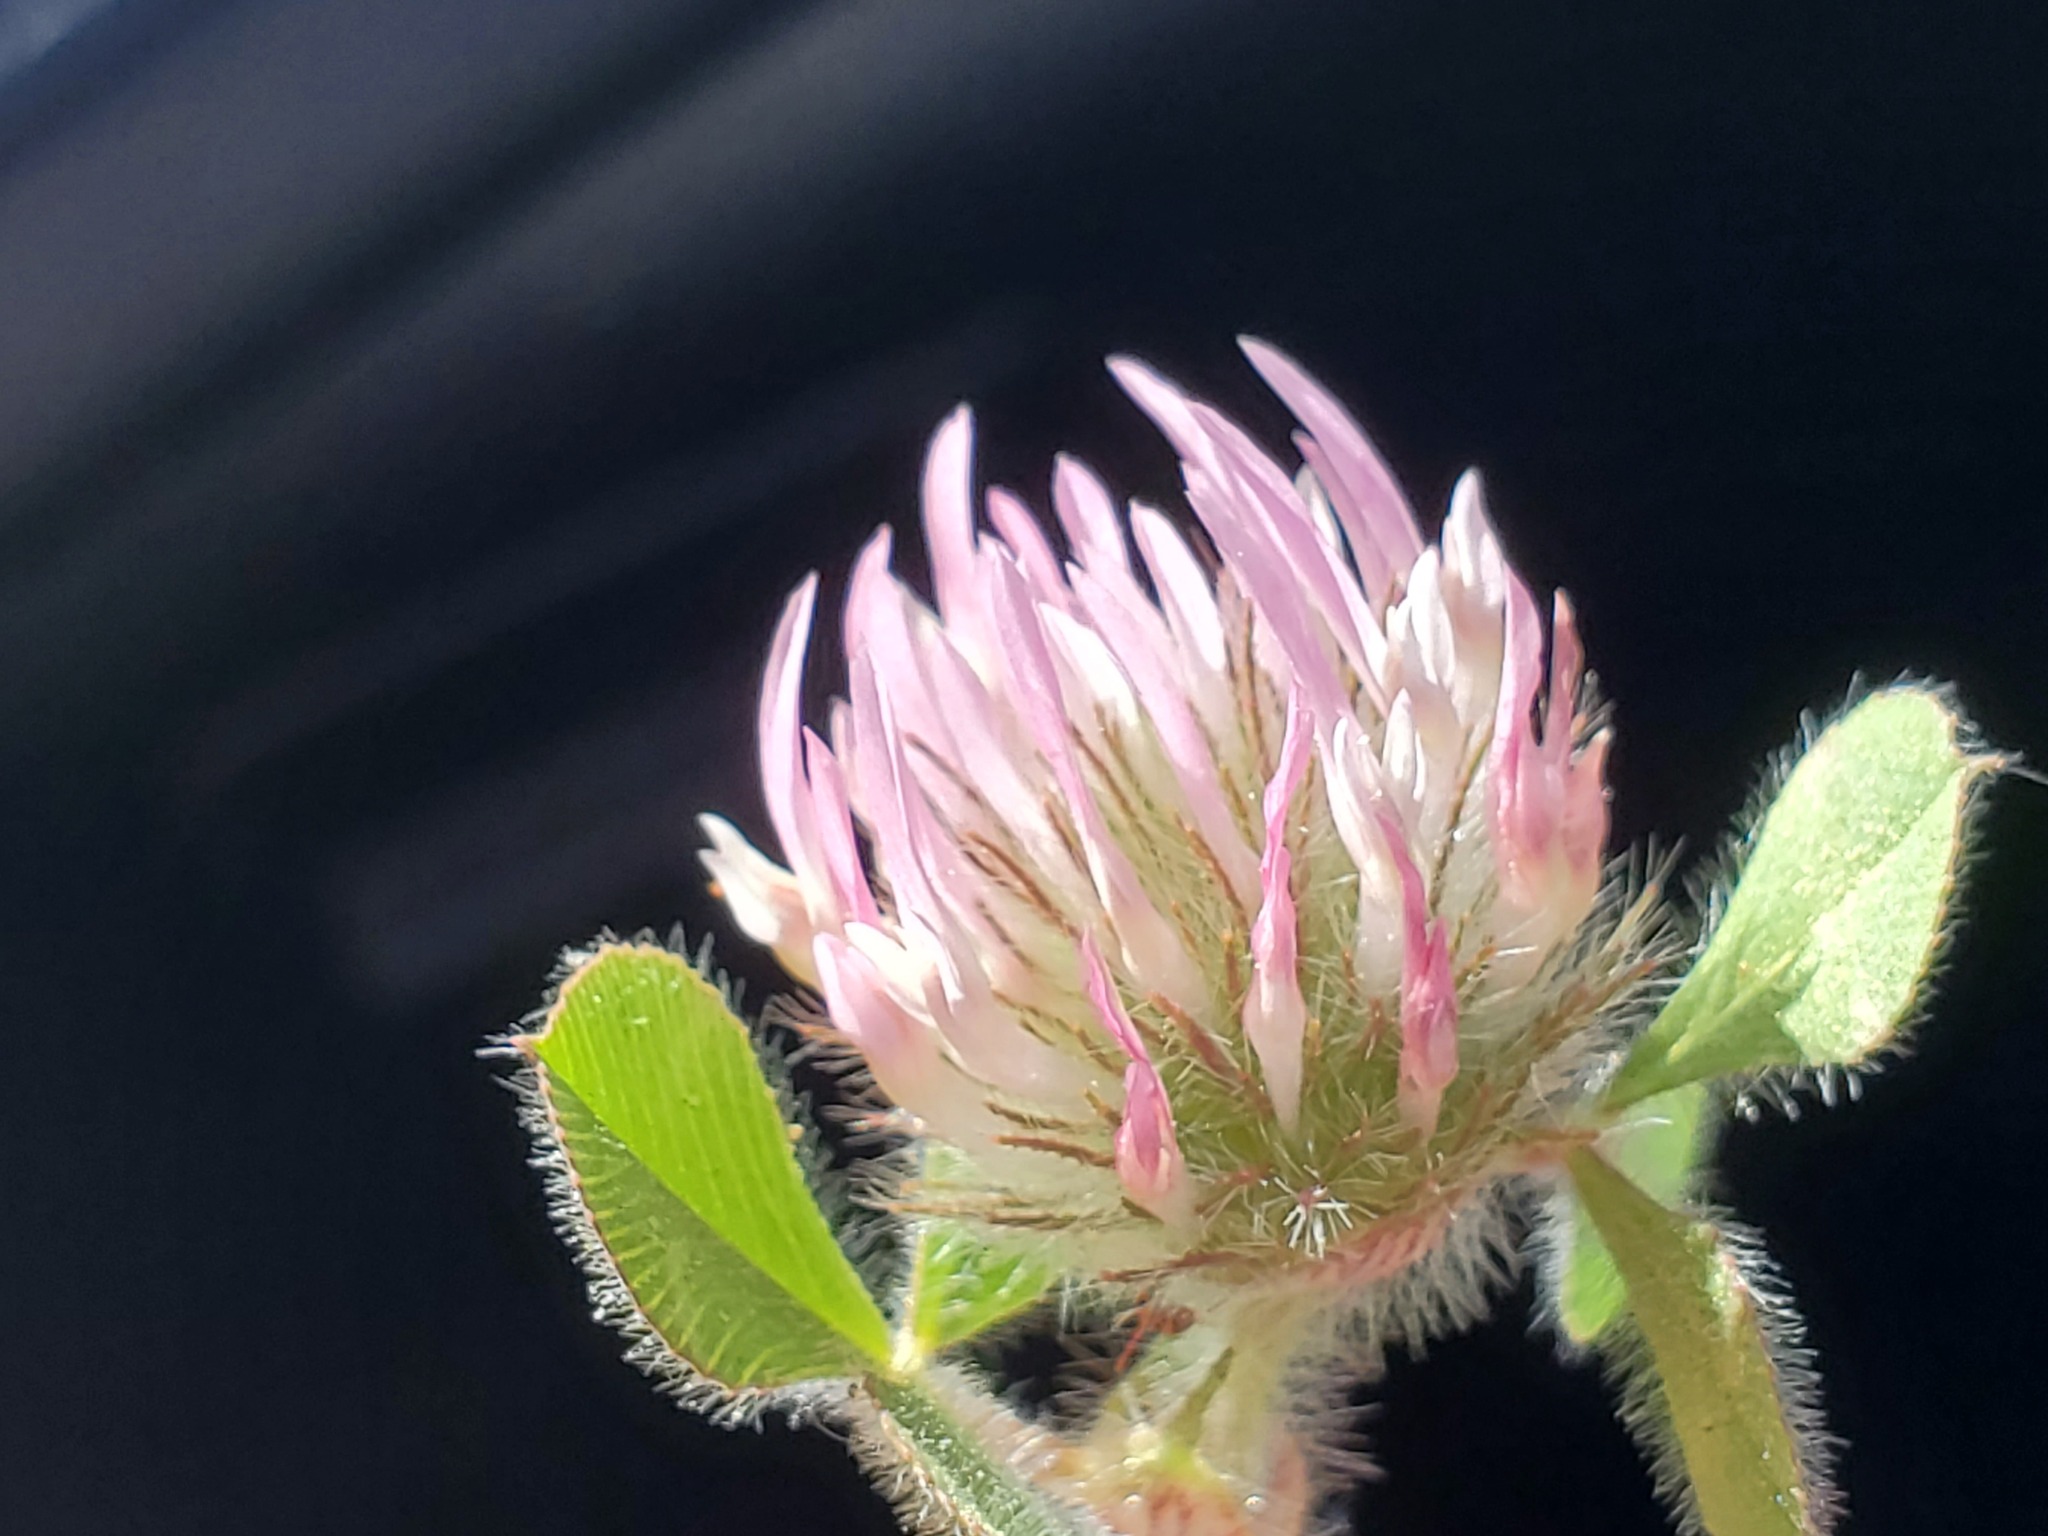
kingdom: Plantae
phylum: Tracheophyta
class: Magnoliopsida
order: Fabales
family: Fabaceae
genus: Trifolium
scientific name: Trifolium hirtum
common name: Rose clover
